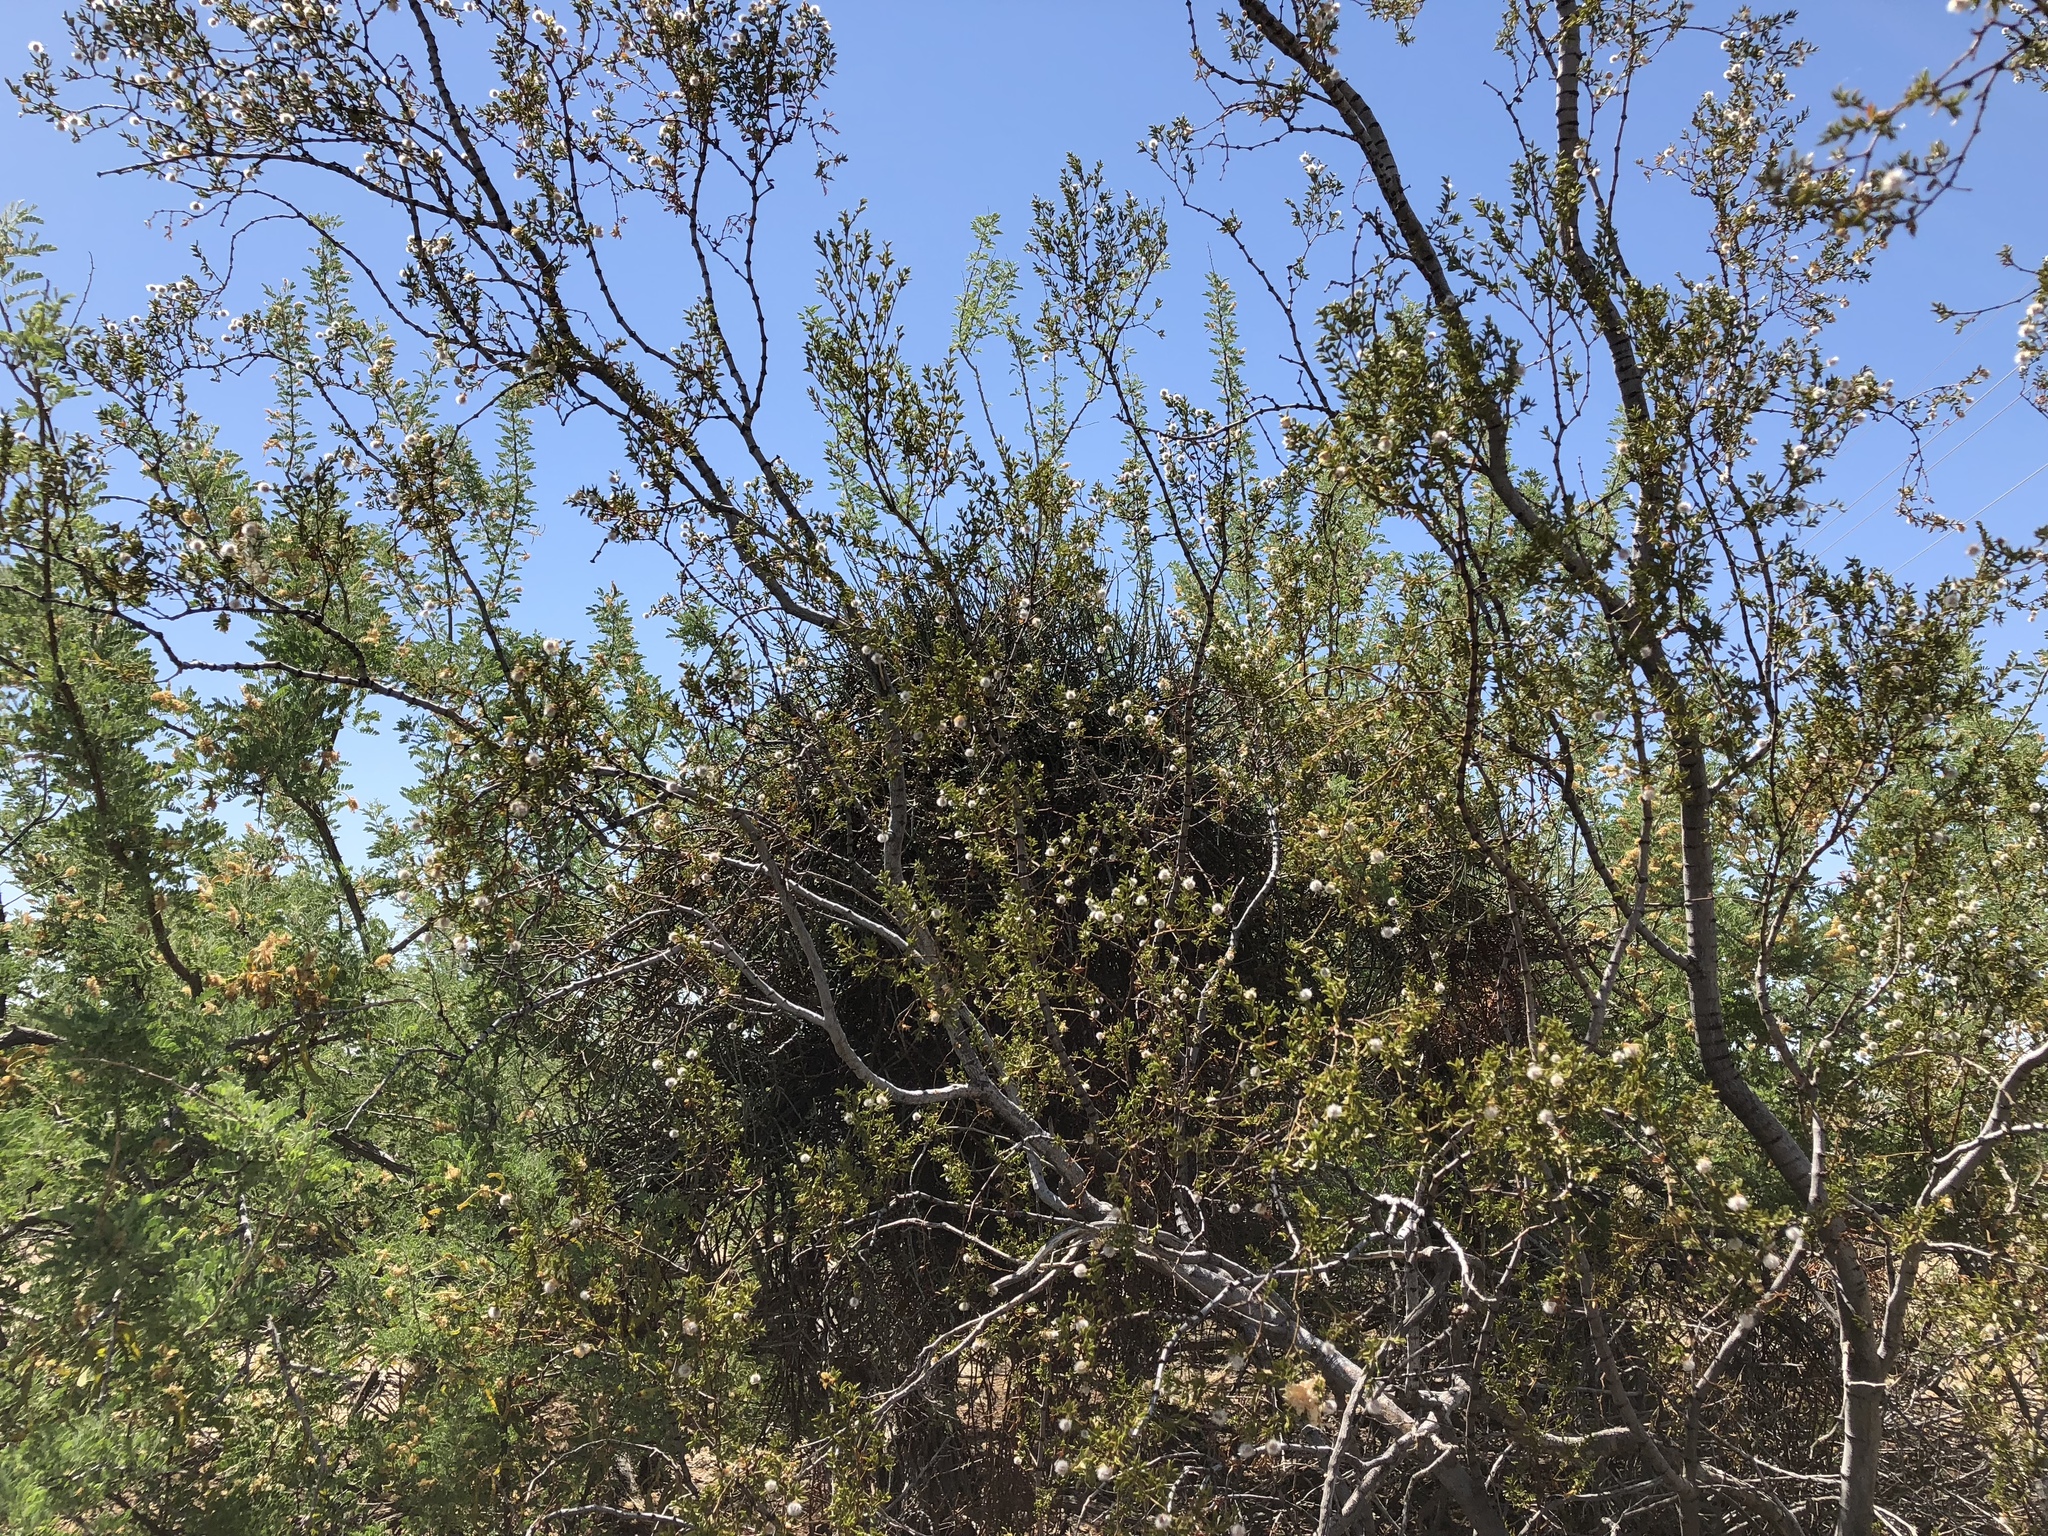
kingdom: Plantae
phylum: Tracheophyta
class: Magnoliopsida
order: Zygophyllales
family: Zygophyllaceae
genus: Larrea
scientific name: Larrea tridentata
